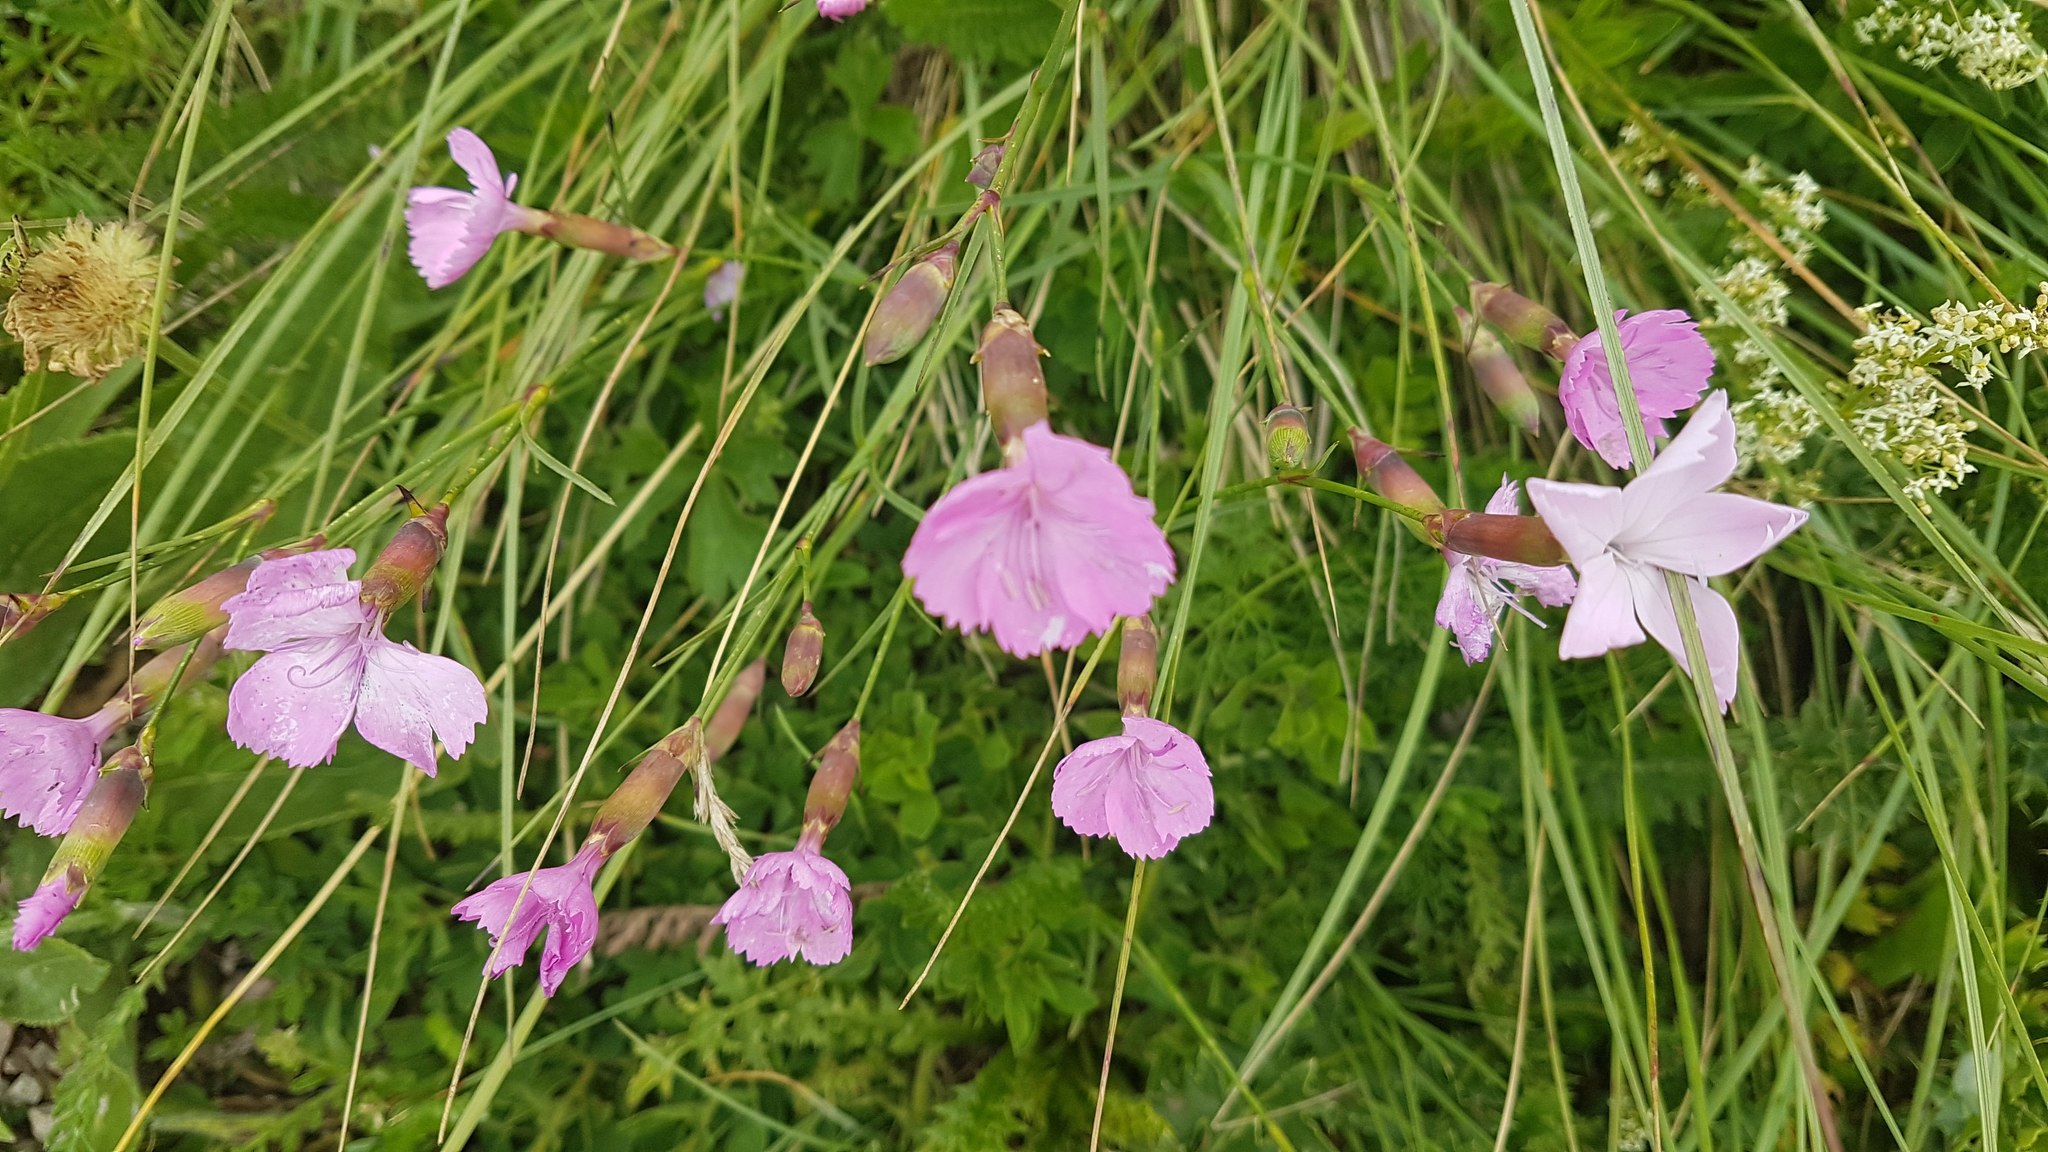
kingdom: Plantae
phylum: Tracheophyta
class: Magnoliopsida
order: Caryophyllales
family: Caryophyllaceae
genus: Dianthus
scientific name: Dianthus sylvestris
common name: Wood pink
